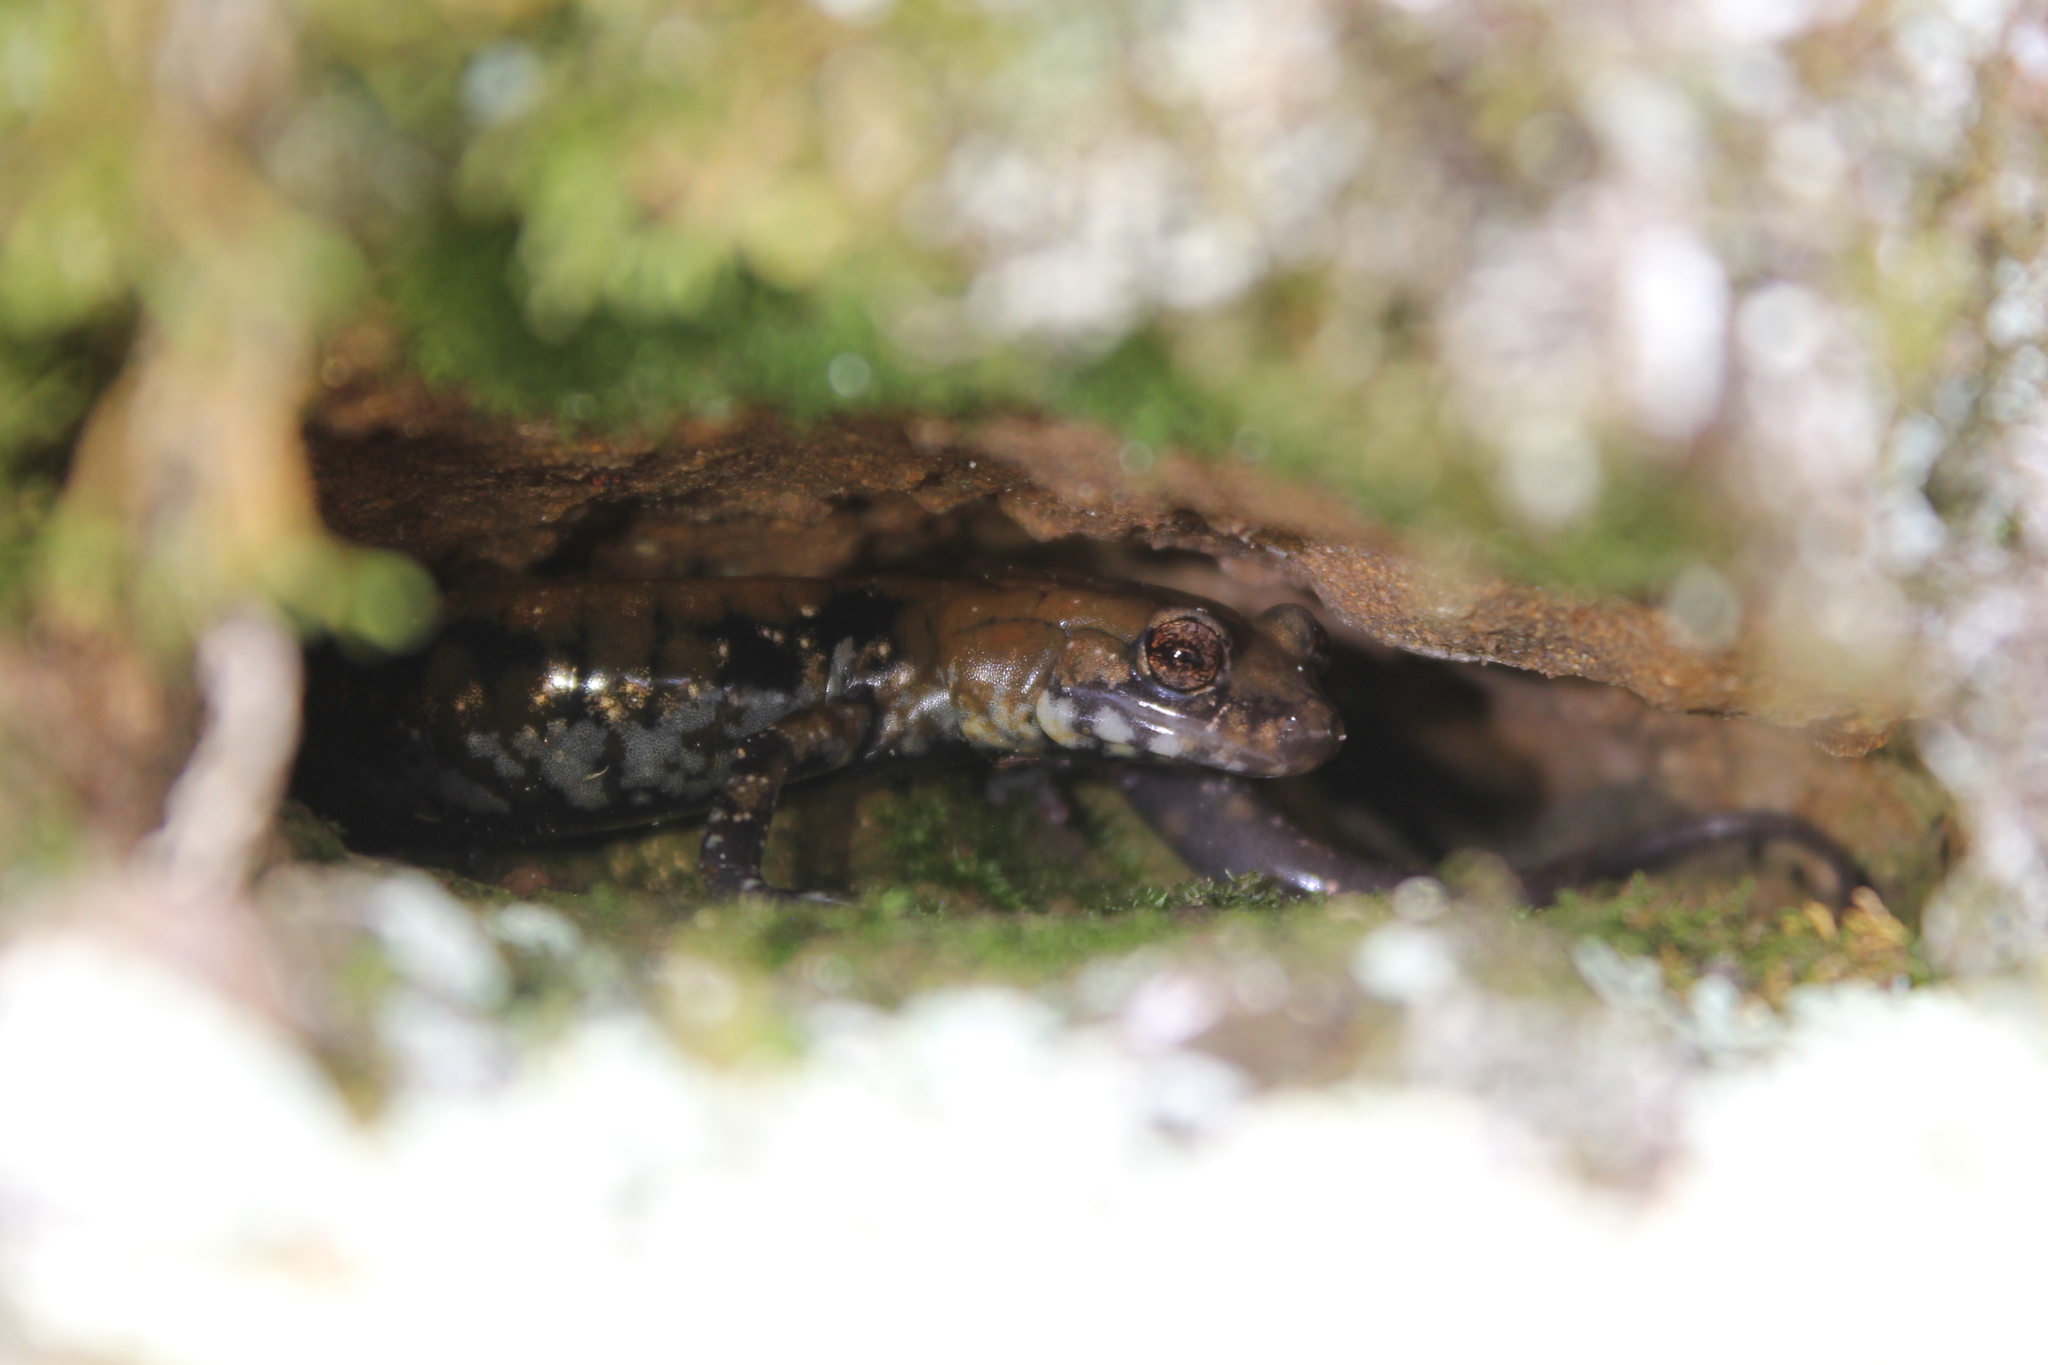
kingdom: Animalia
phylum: Chordata
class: Amphibia
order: Caudata
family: Plethodontidae
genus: Plethodon
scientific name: Plethodon petraeus
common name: Pigeon mountain salamander
